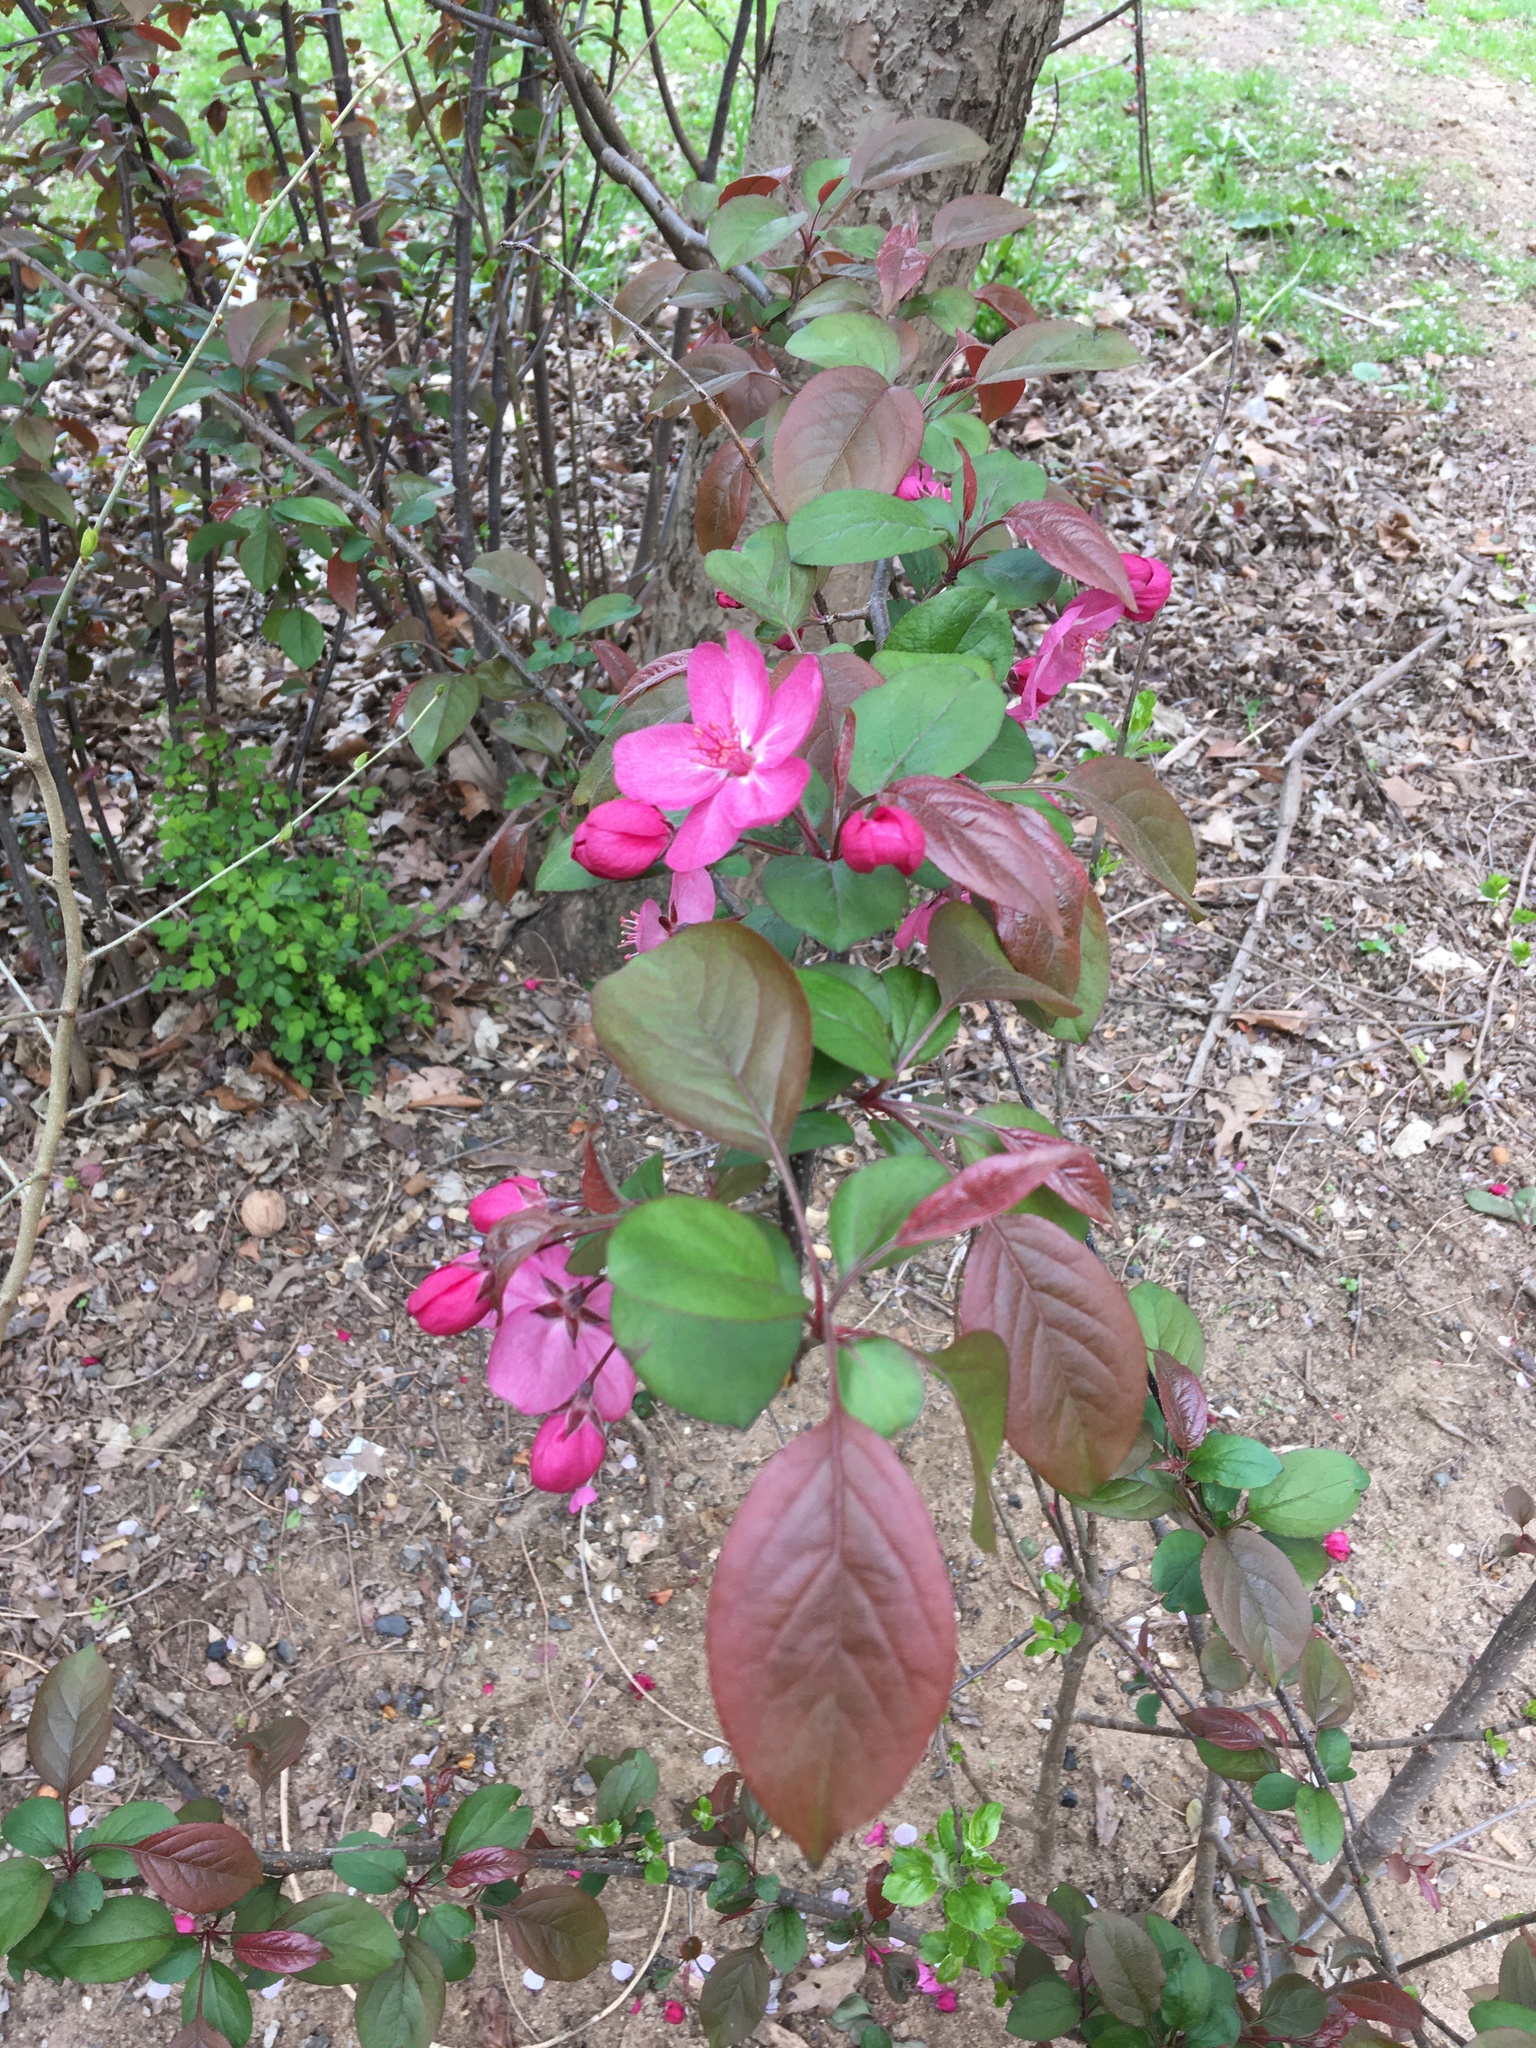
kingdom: Plantae
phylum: Tracheophyta
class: Magnoliopsida
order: Rosales
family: Rosaceae
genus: Malus
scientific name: Malus hupehensis
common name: Chinese crab apple
